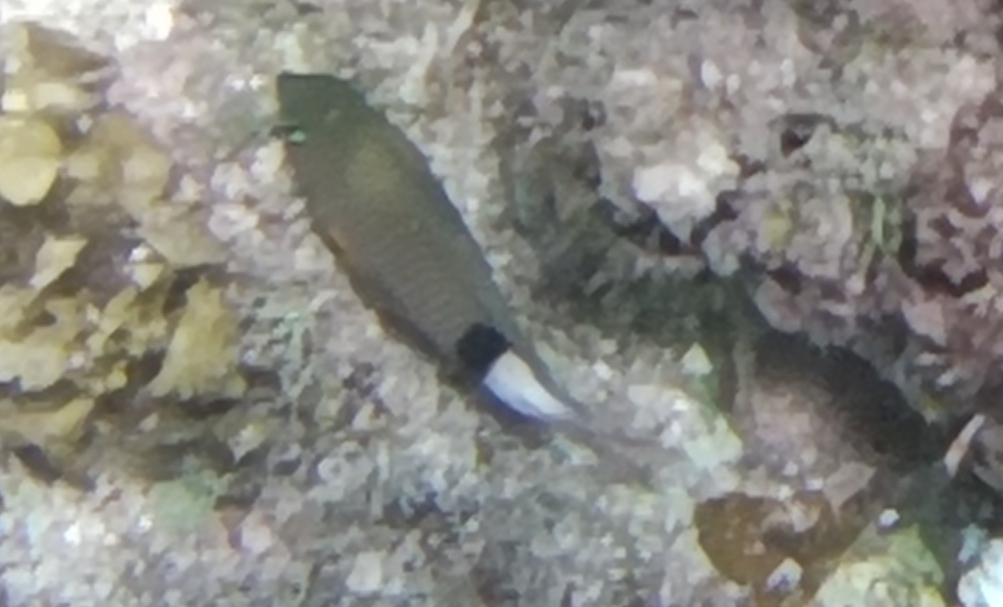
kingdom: Animalia
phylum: Chordata
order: Perciformes
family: Pomacentridae
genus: Plectroglyphidodon
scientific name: Plectroglyphidodon dickii
